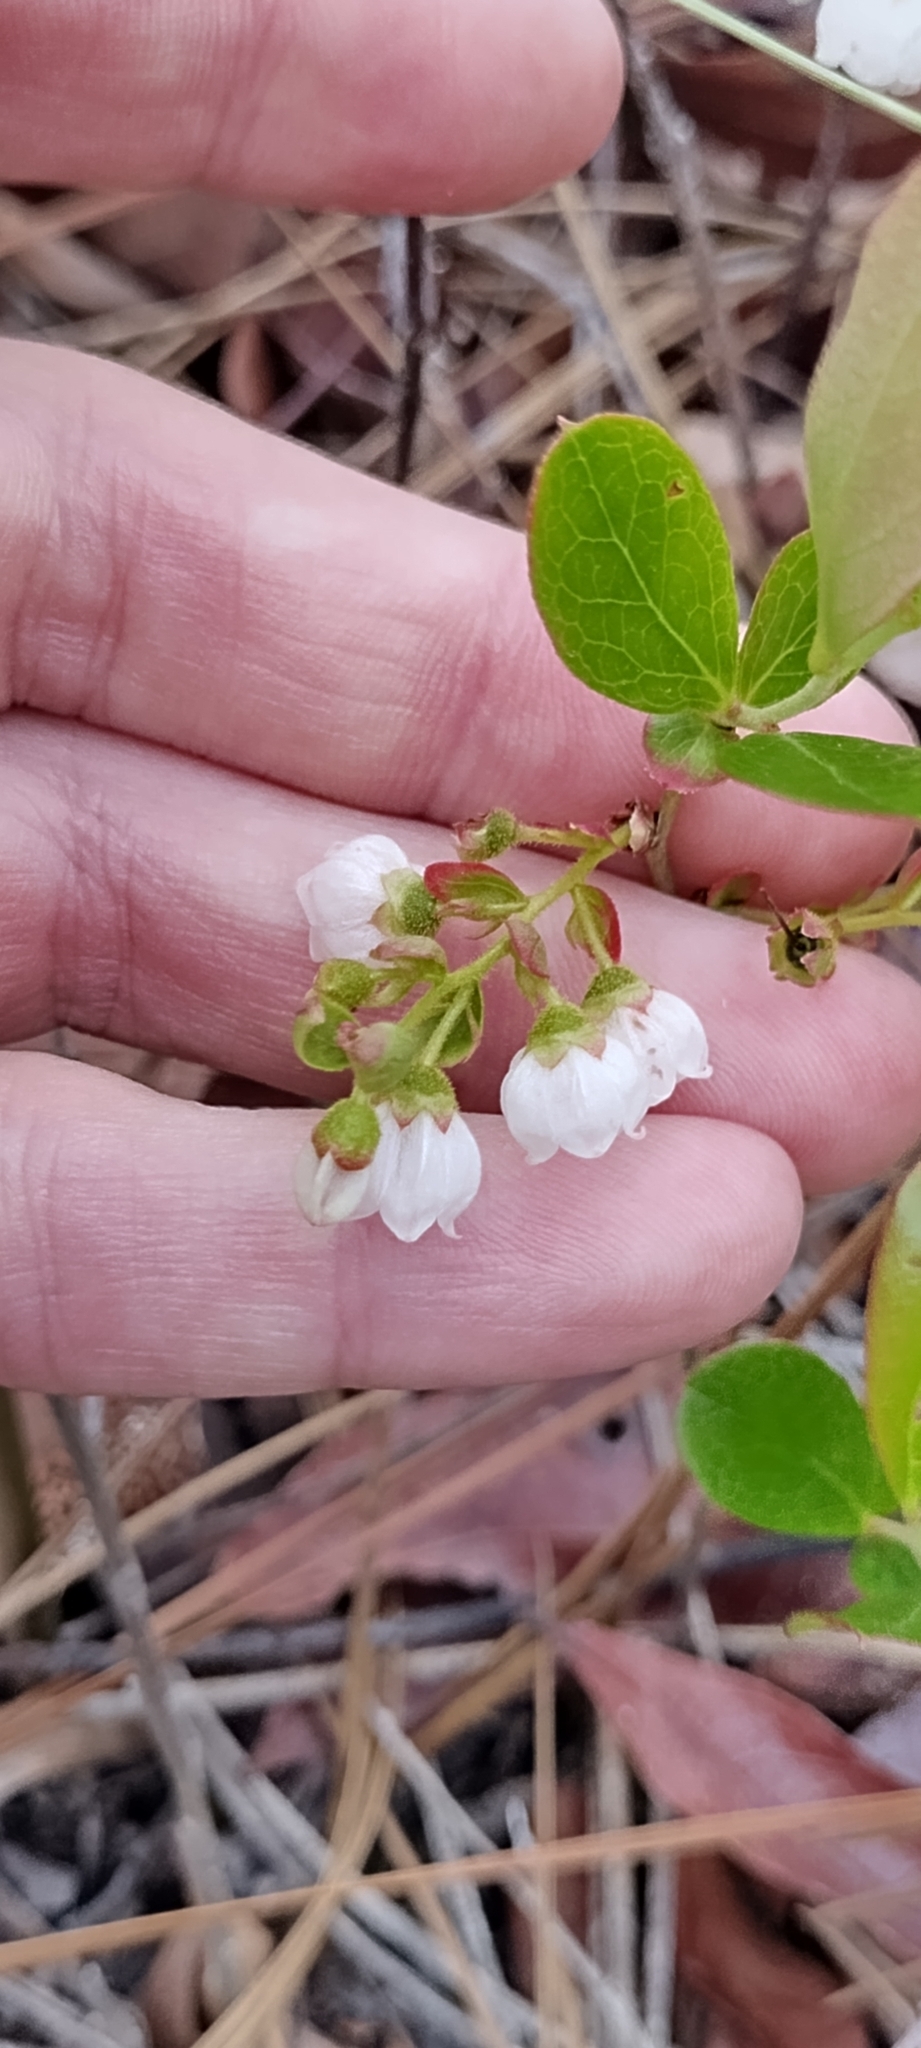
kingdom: Plantae
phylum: Tracheophyta
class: Magnoliopsida
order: Ericales
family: Ericaceae
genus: Gaylussacia
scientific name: Gaylussacia dumosa
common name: Dwarf huckleberry
